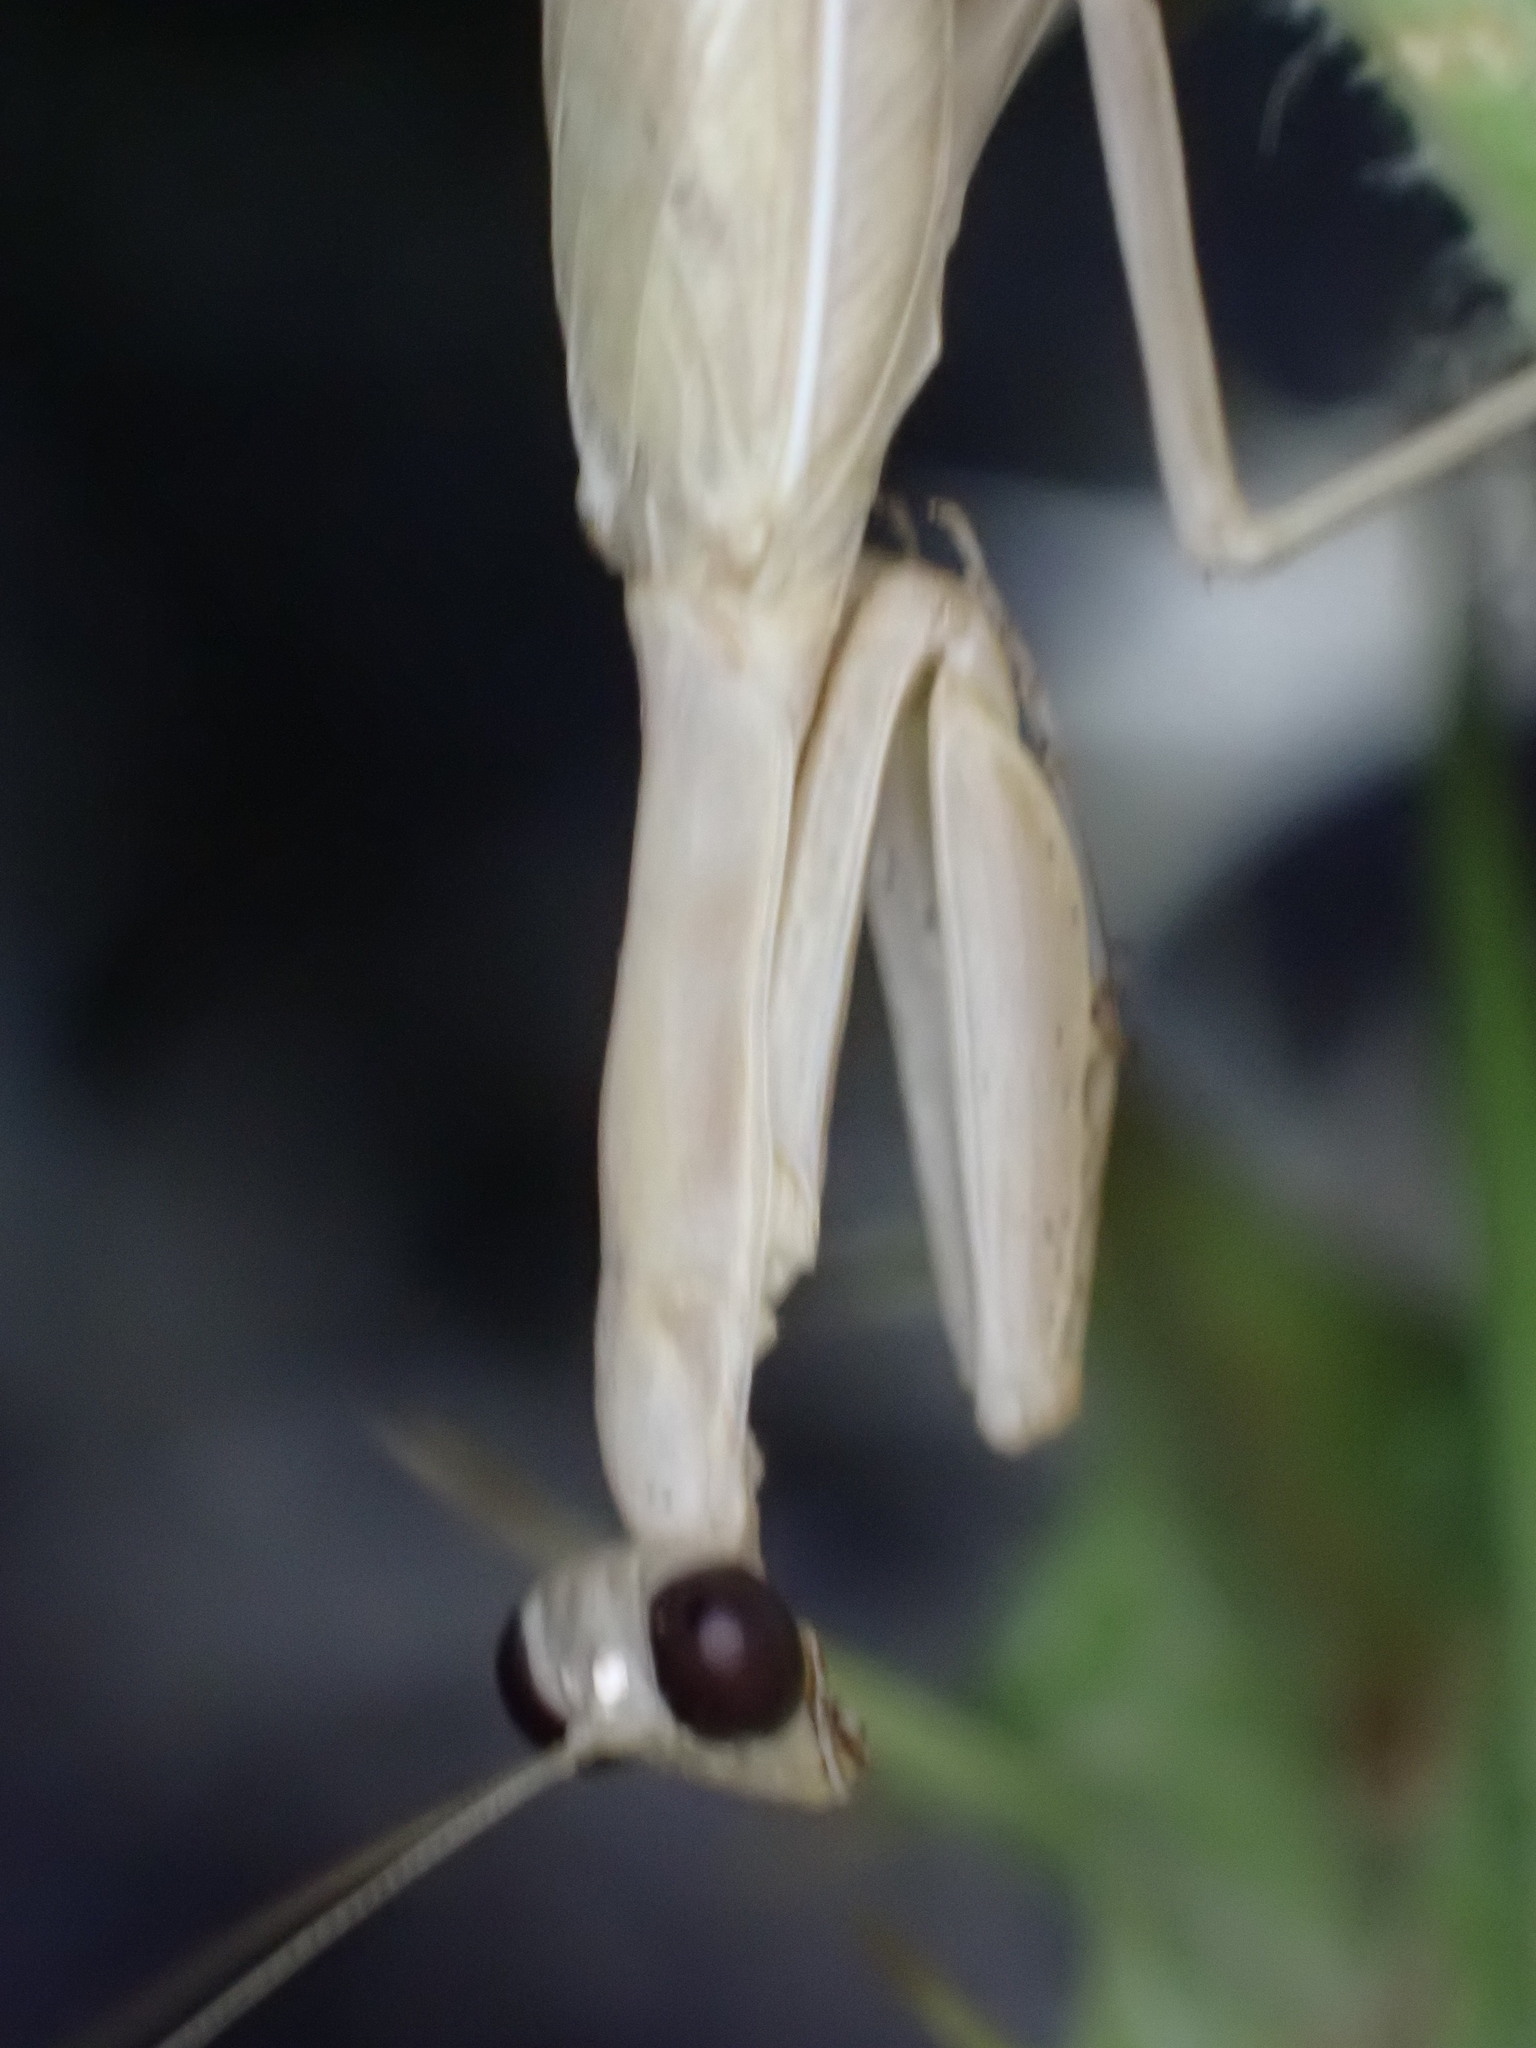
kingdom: Animalia
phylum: Arthropoda
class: Insecta
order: Mantodea
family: Eremiaphilidae
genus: Iris
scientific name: Iris oratoria
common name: Mediterranean mantis
